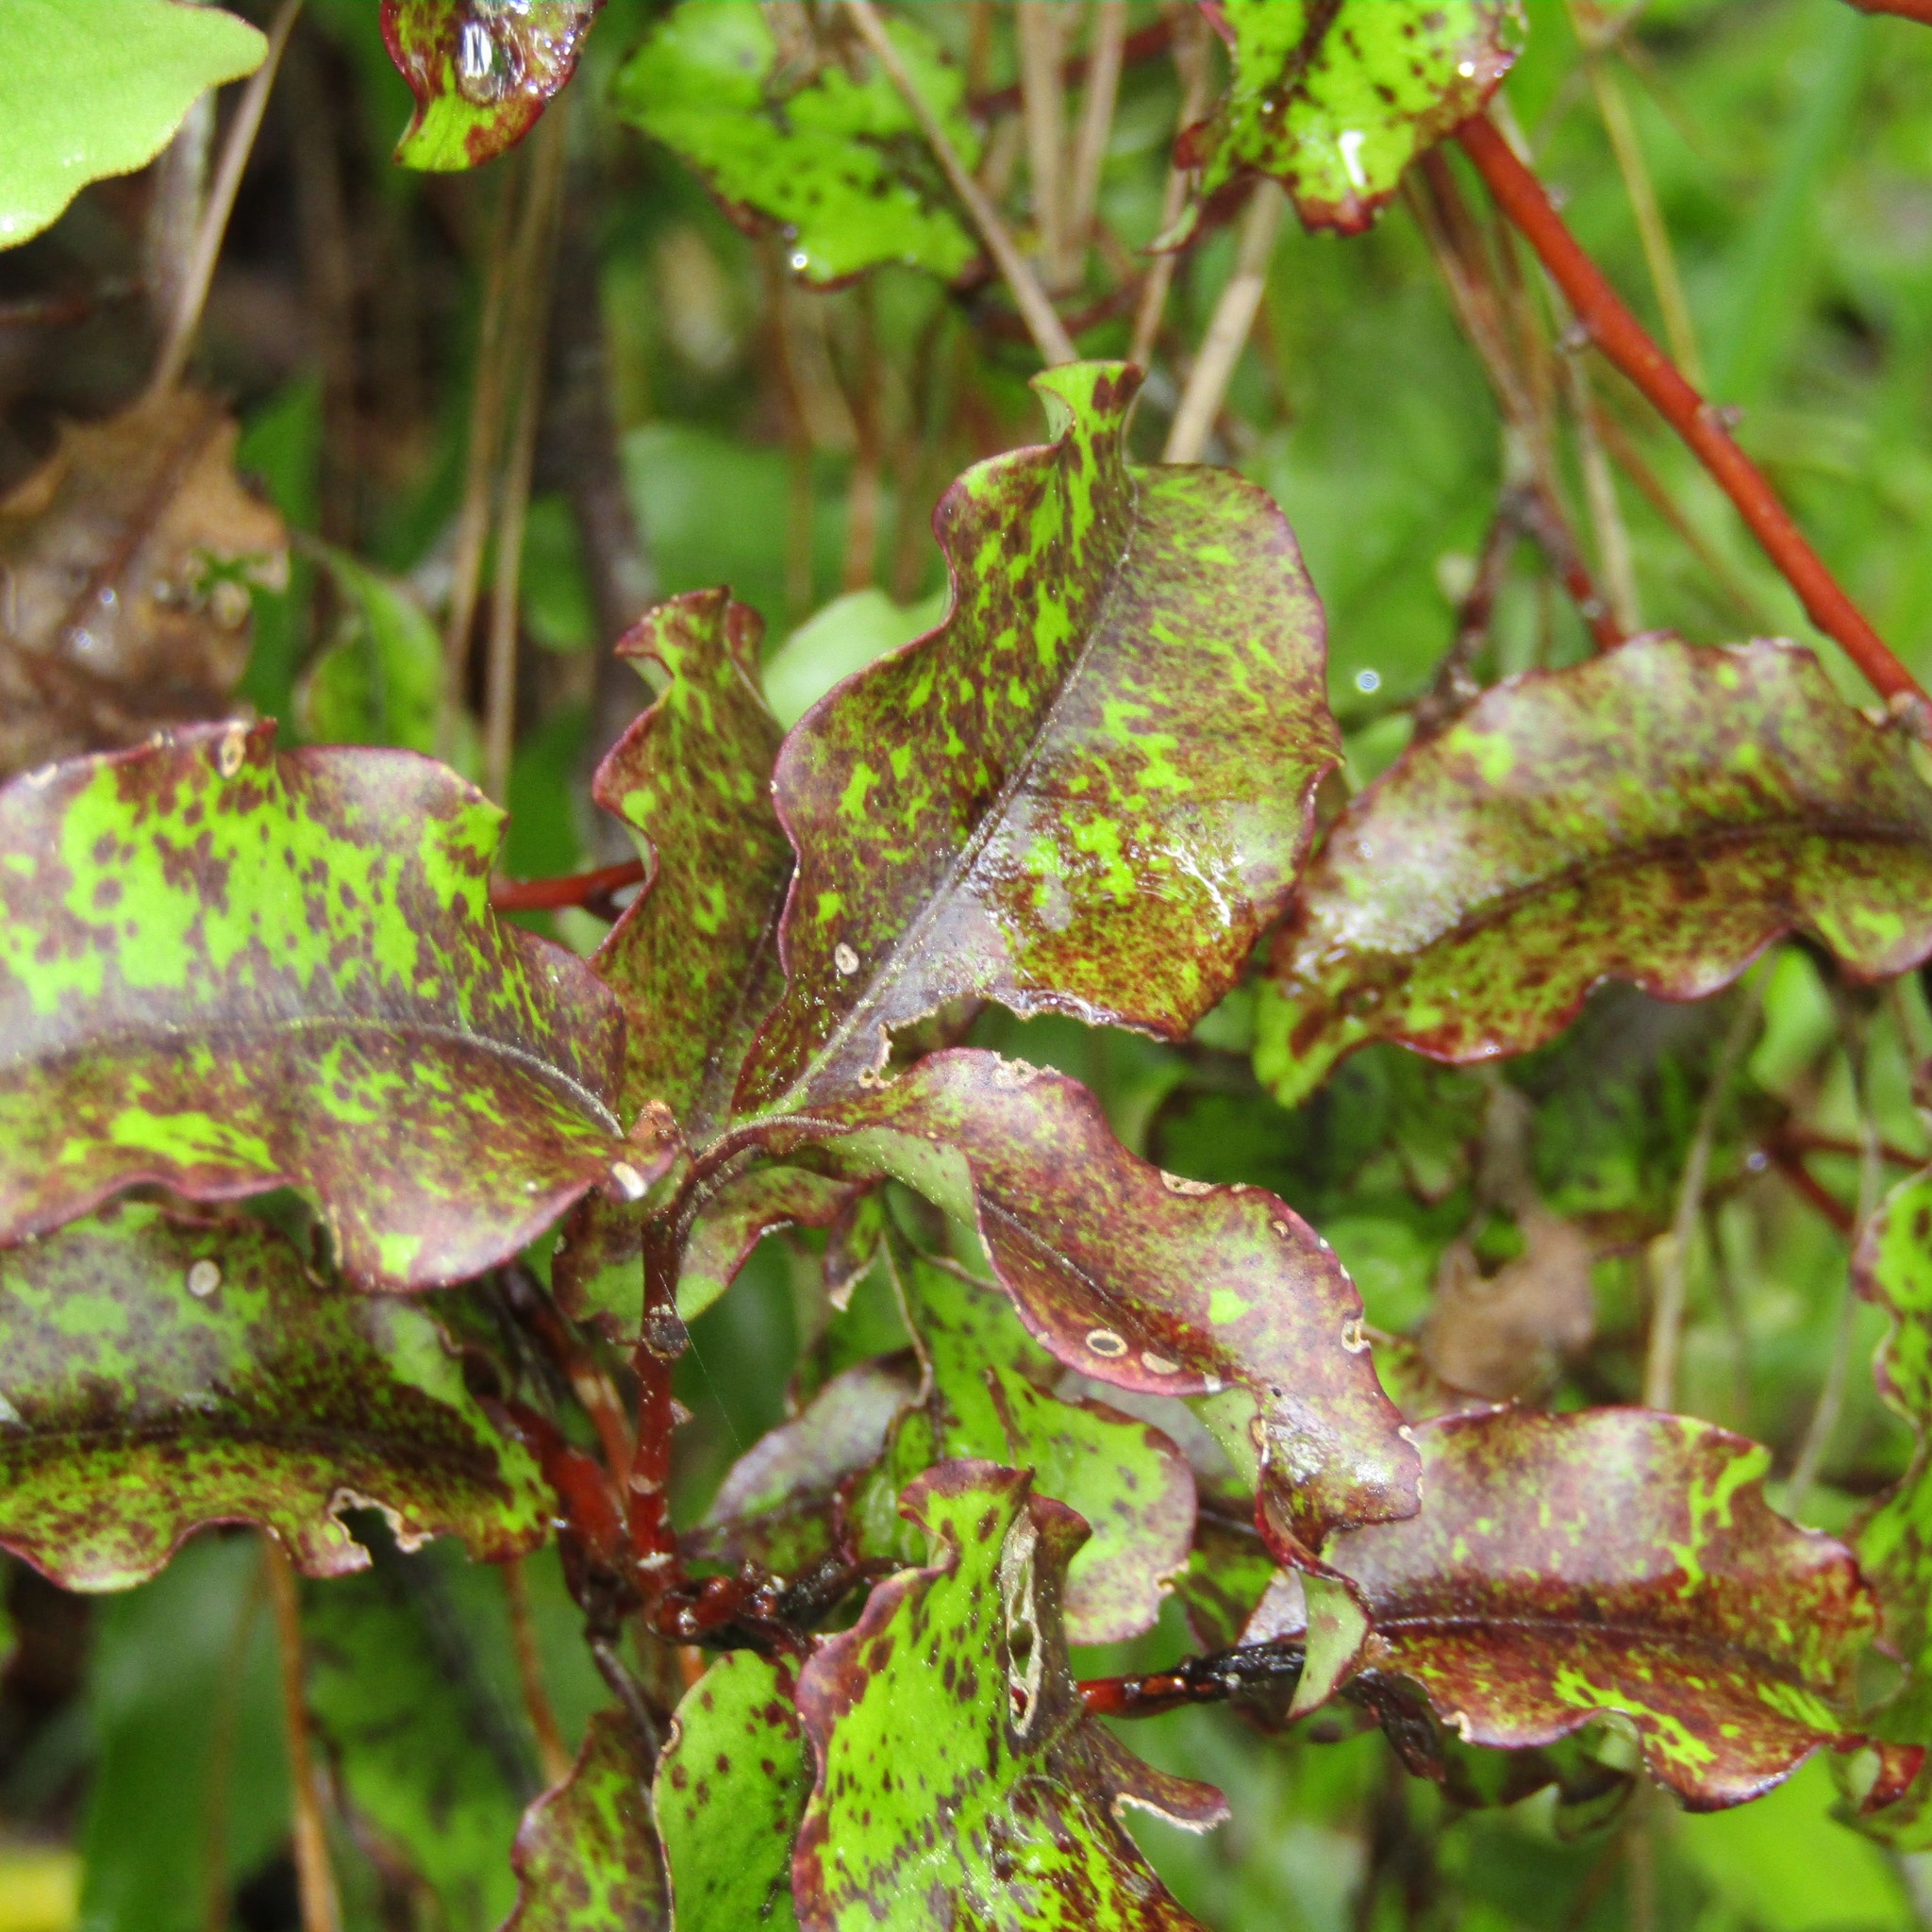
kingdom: Plantae
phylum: Tracheophyta
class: Magnoliopsida
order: Ericales
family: Primulaceae
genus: Myrsine
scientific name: Myrsine australis
